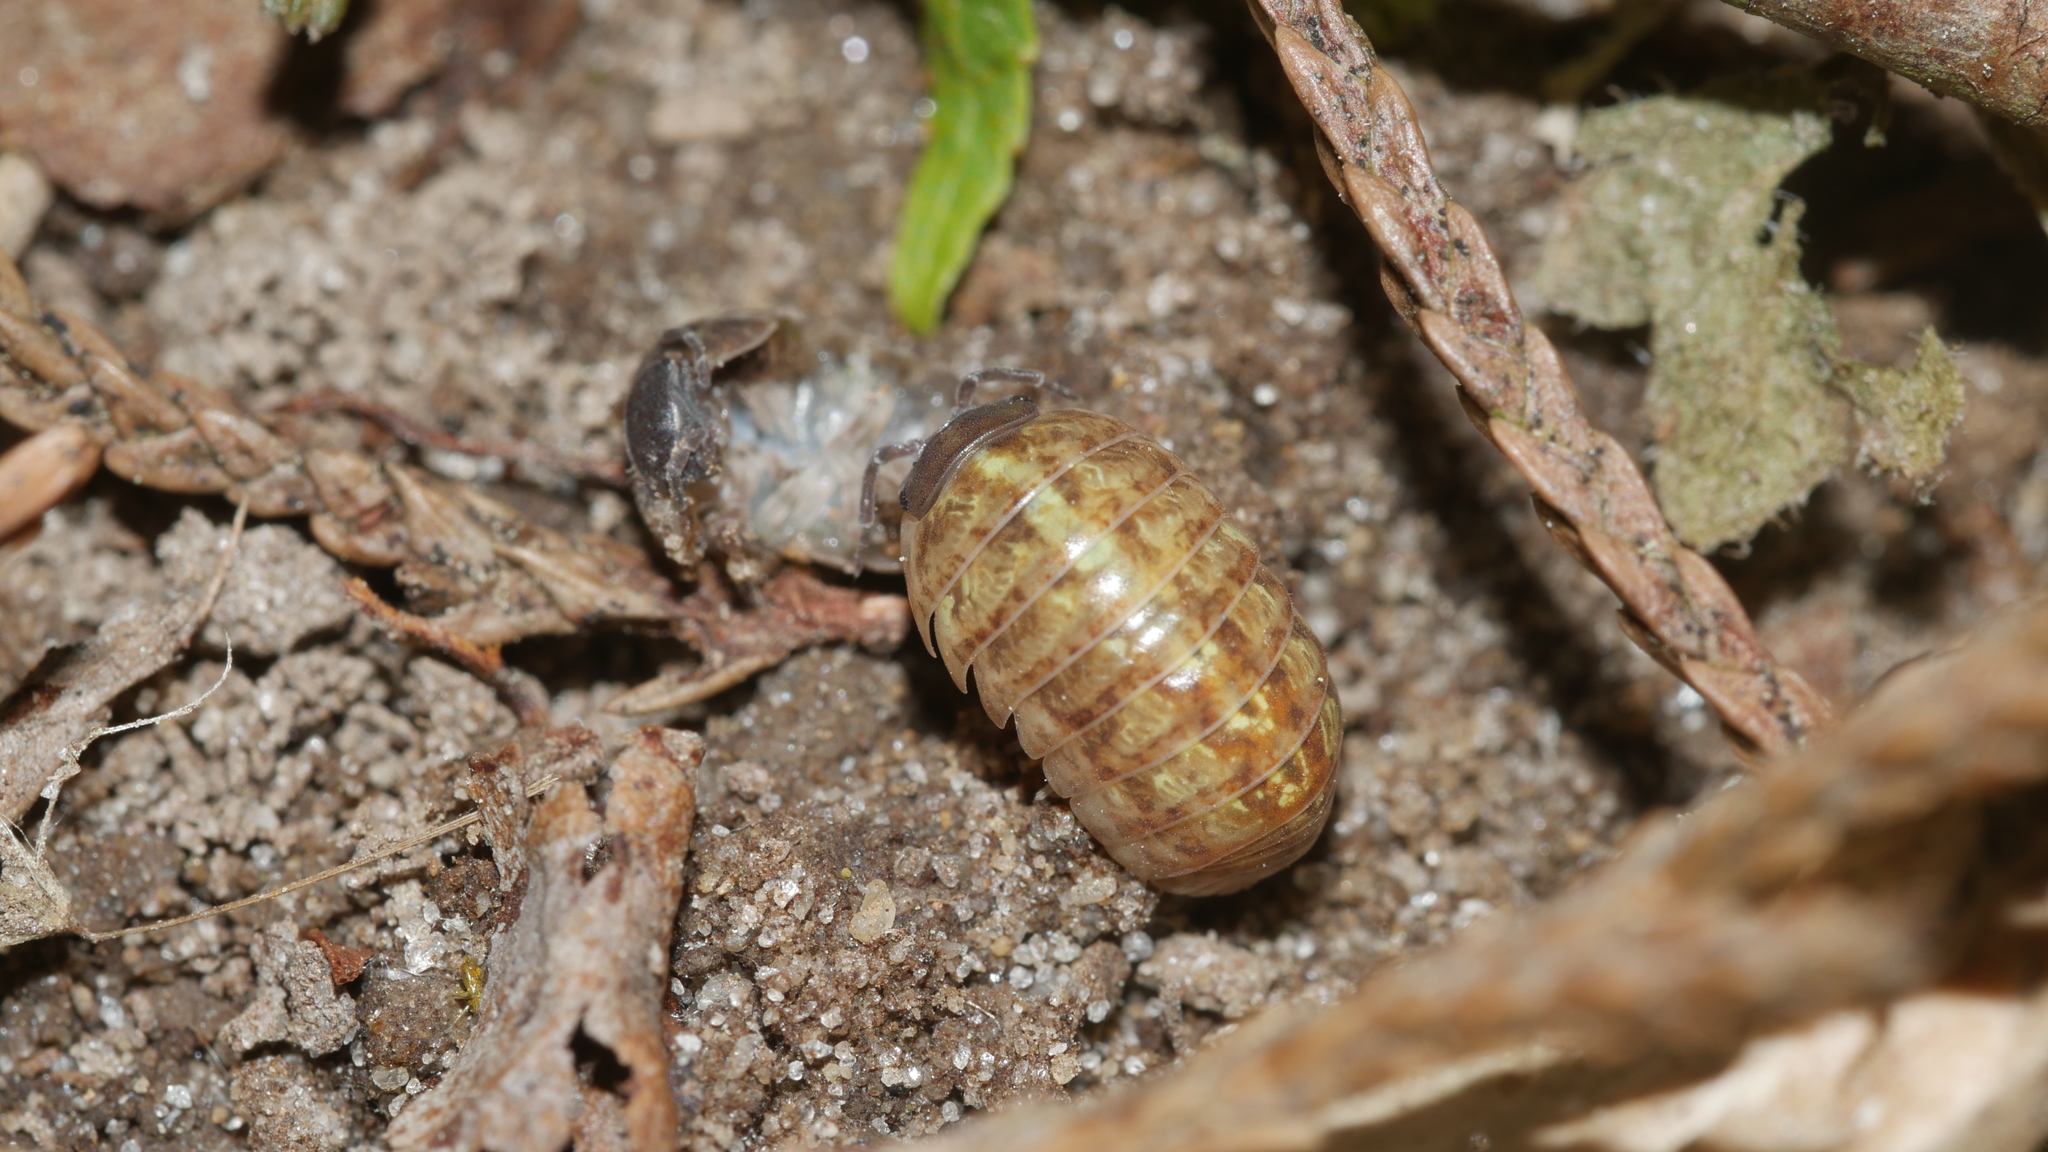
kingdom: Animalia
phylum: Arthropoda
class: Malacostraca
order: Isopoda
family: Armadillidiidae
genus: Armadillidium
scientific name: Armadillidium vulgare
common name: Common pill woodlouse
